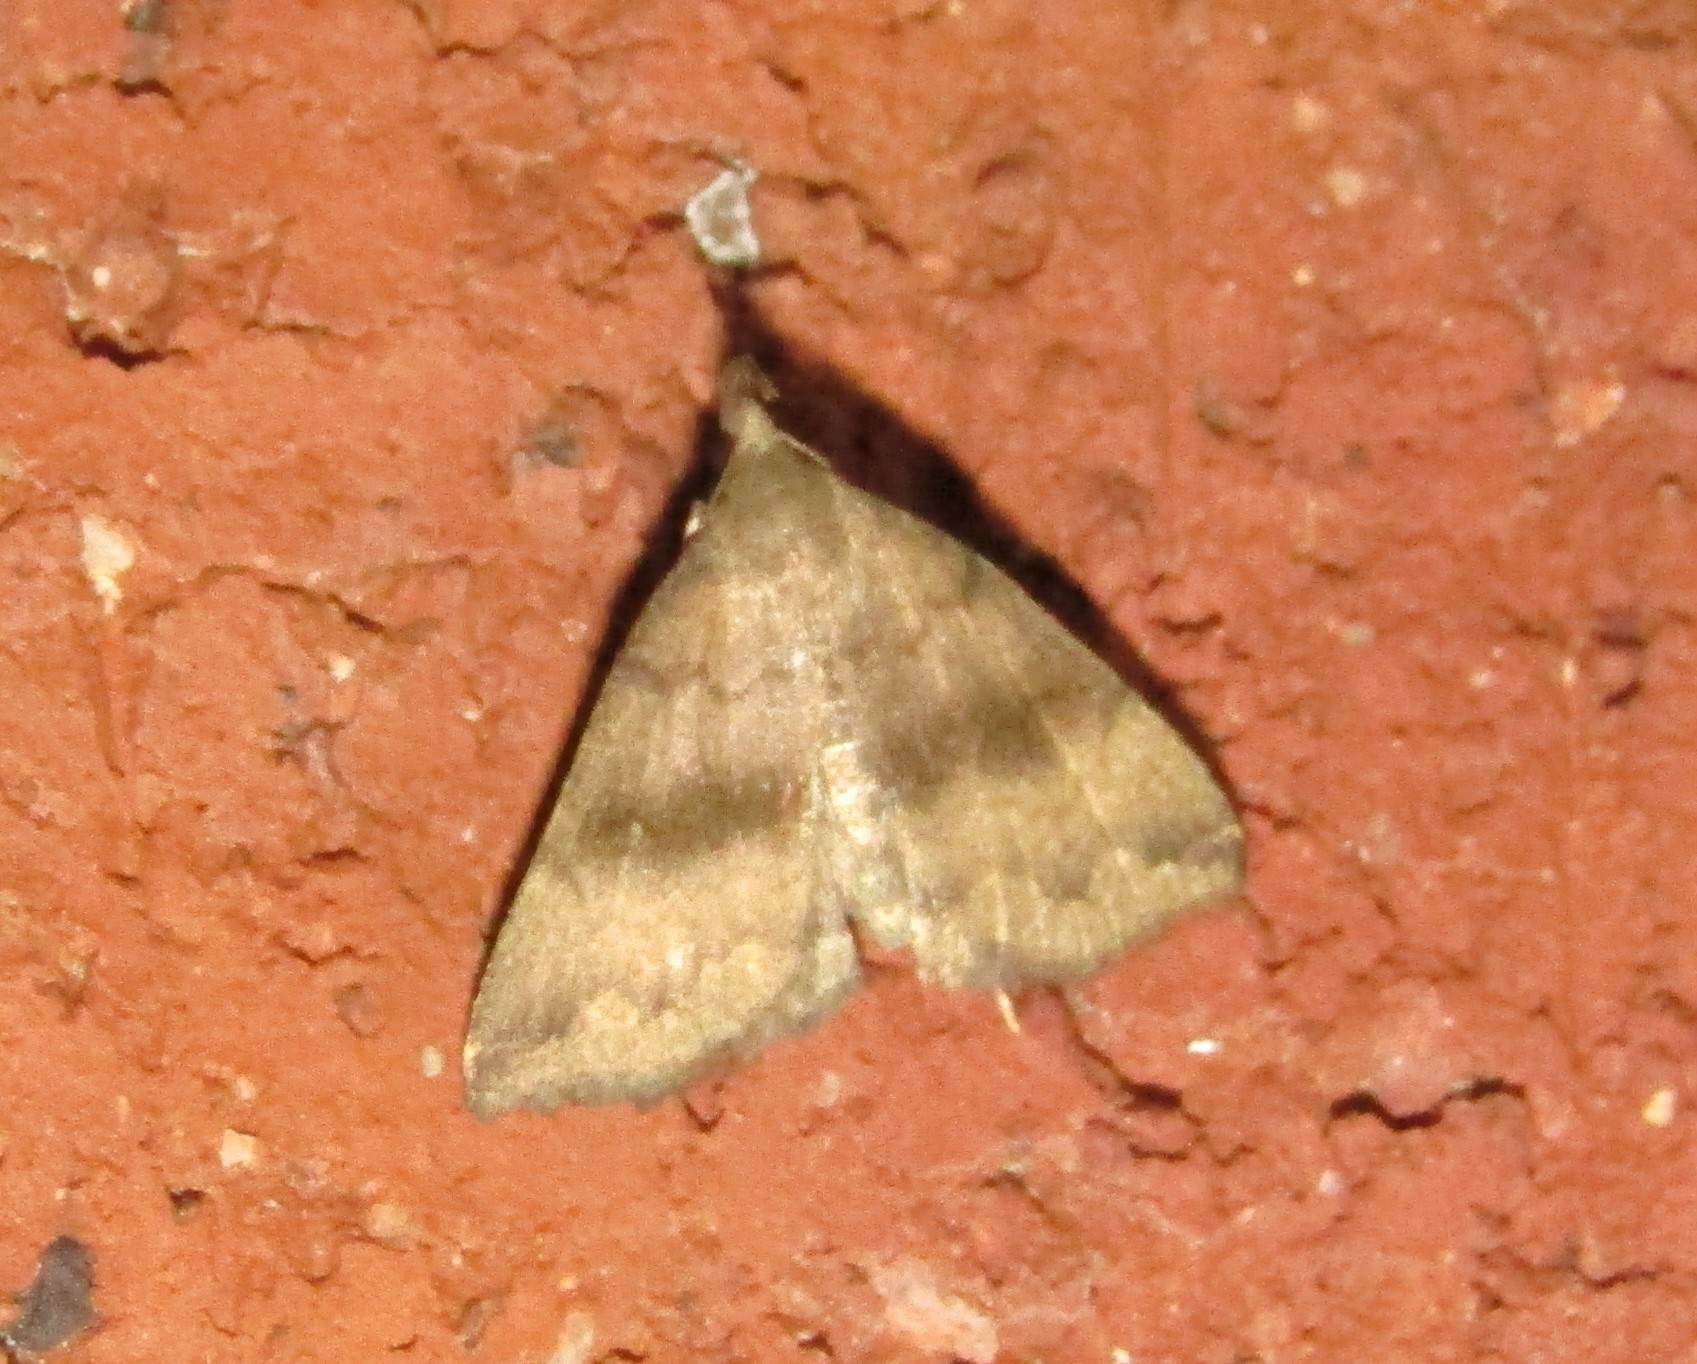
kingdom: Animalia
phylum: Arthropoda
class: Insecta
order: Lepidoptera
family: Erebidae
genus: Phalaenostola
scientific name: Phalaenostola eumelusalis
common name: Dark phalaenostola moth
